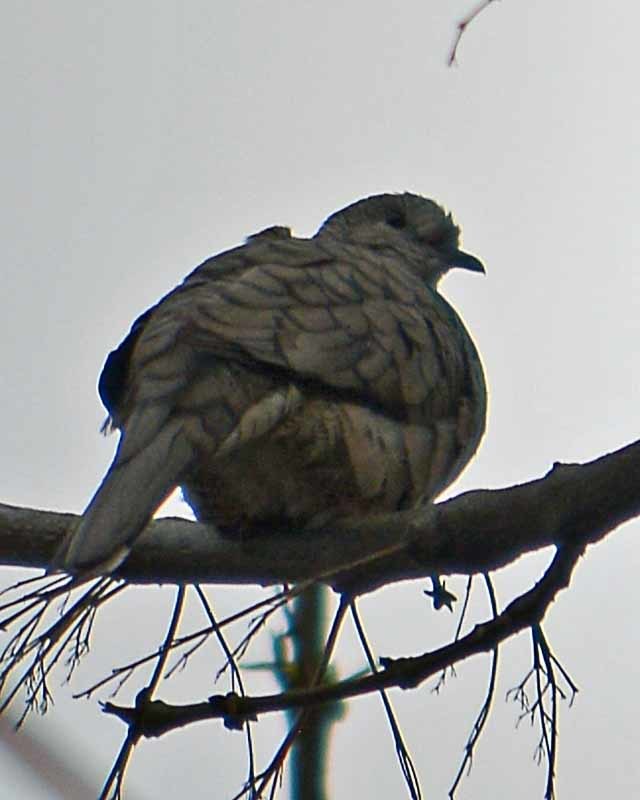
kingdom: Animalia
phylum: Chordata
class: Aves
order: Columbiformes
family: Columbidae
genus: Columbina
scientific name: Columbina inca
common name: Inca dove
